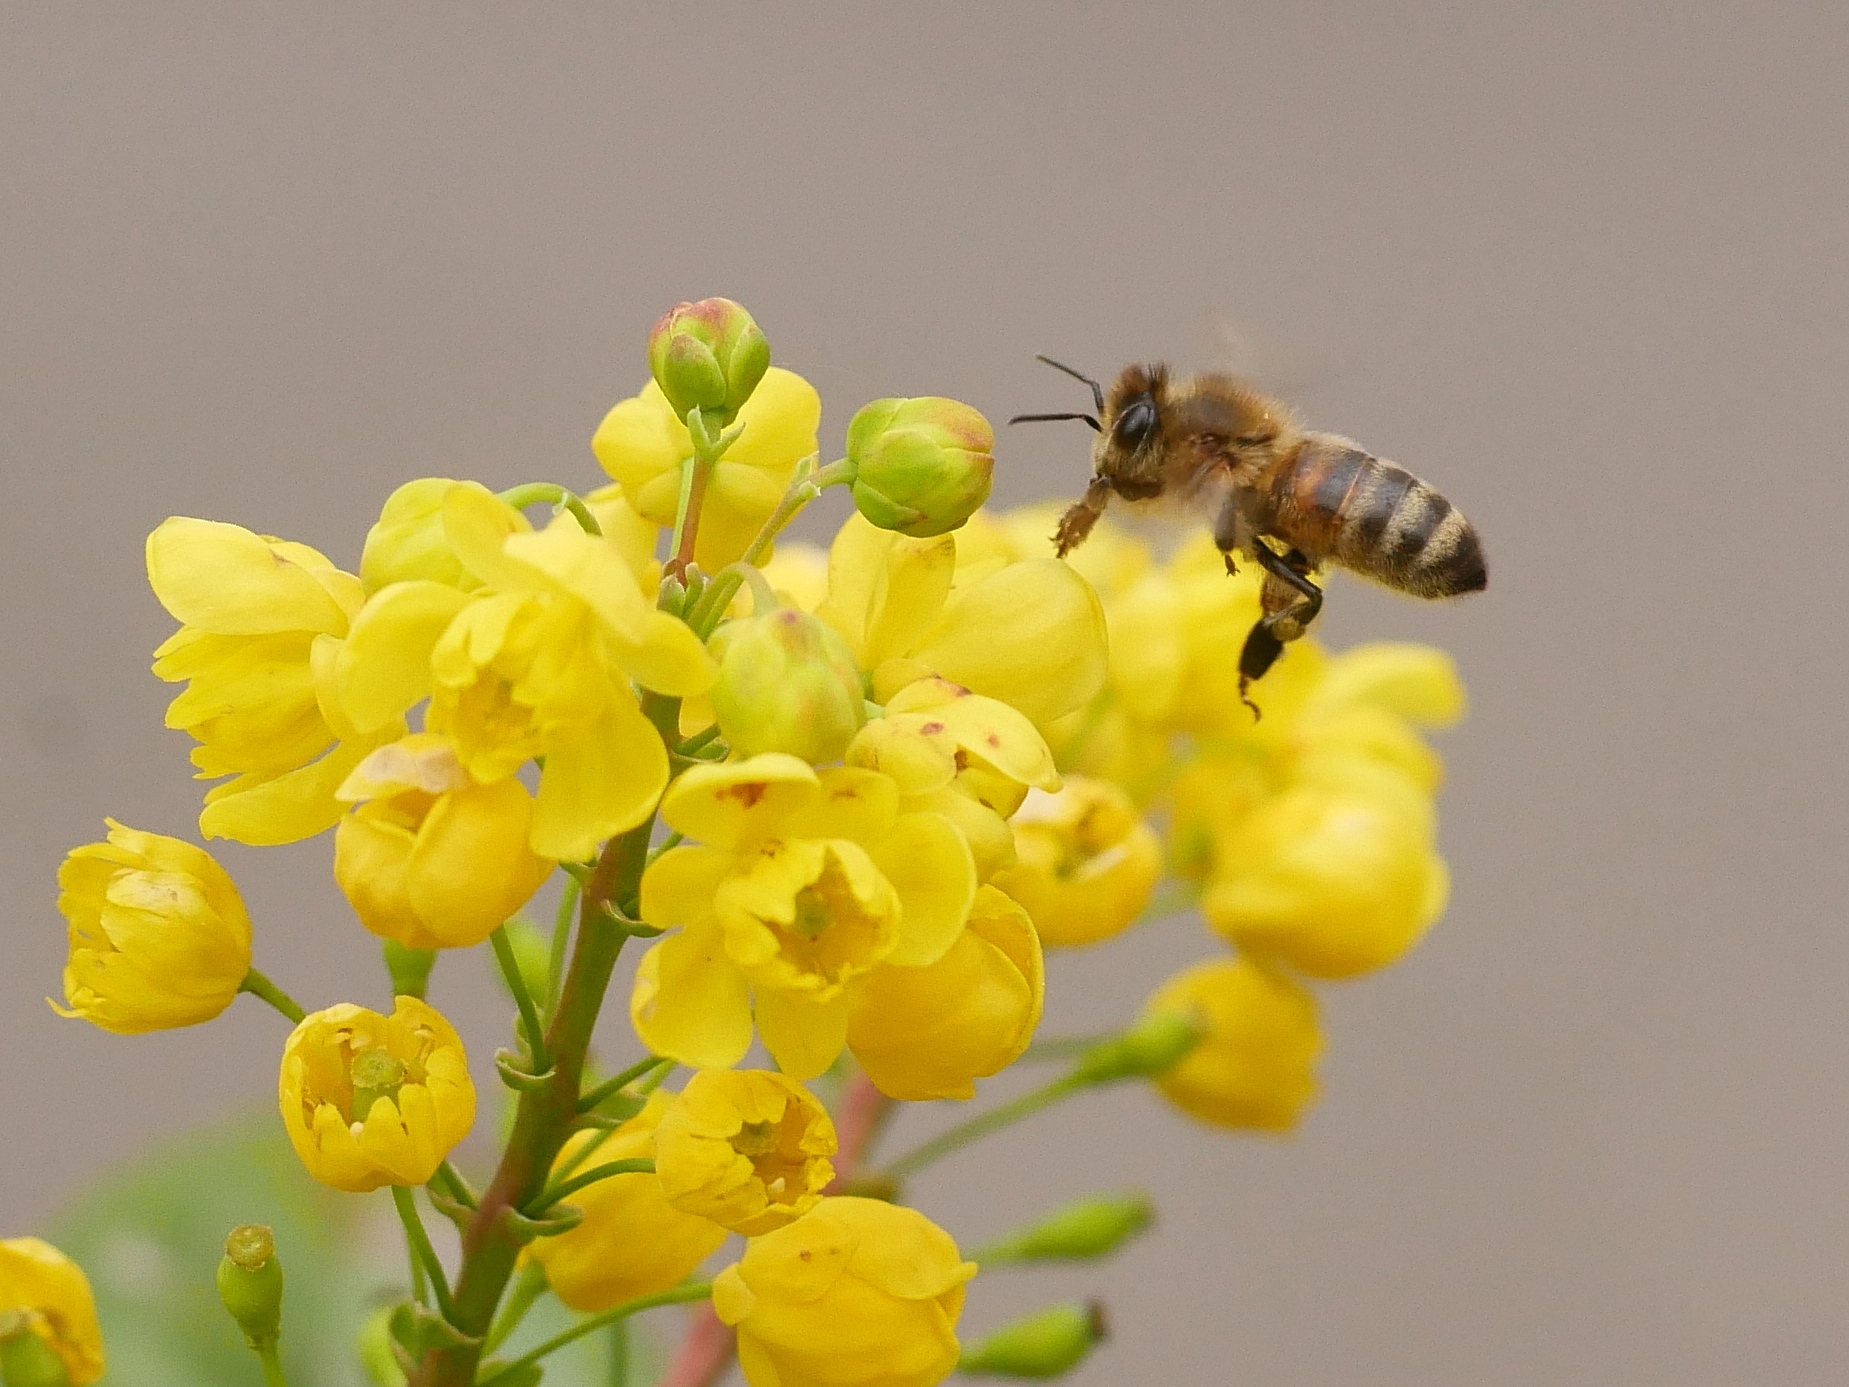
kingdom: Animalia
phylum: Arthropoda
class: Insecta
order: Hymenoptera
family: Apidae
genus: Apis
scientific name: Apis mellifera
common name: Honey bee
